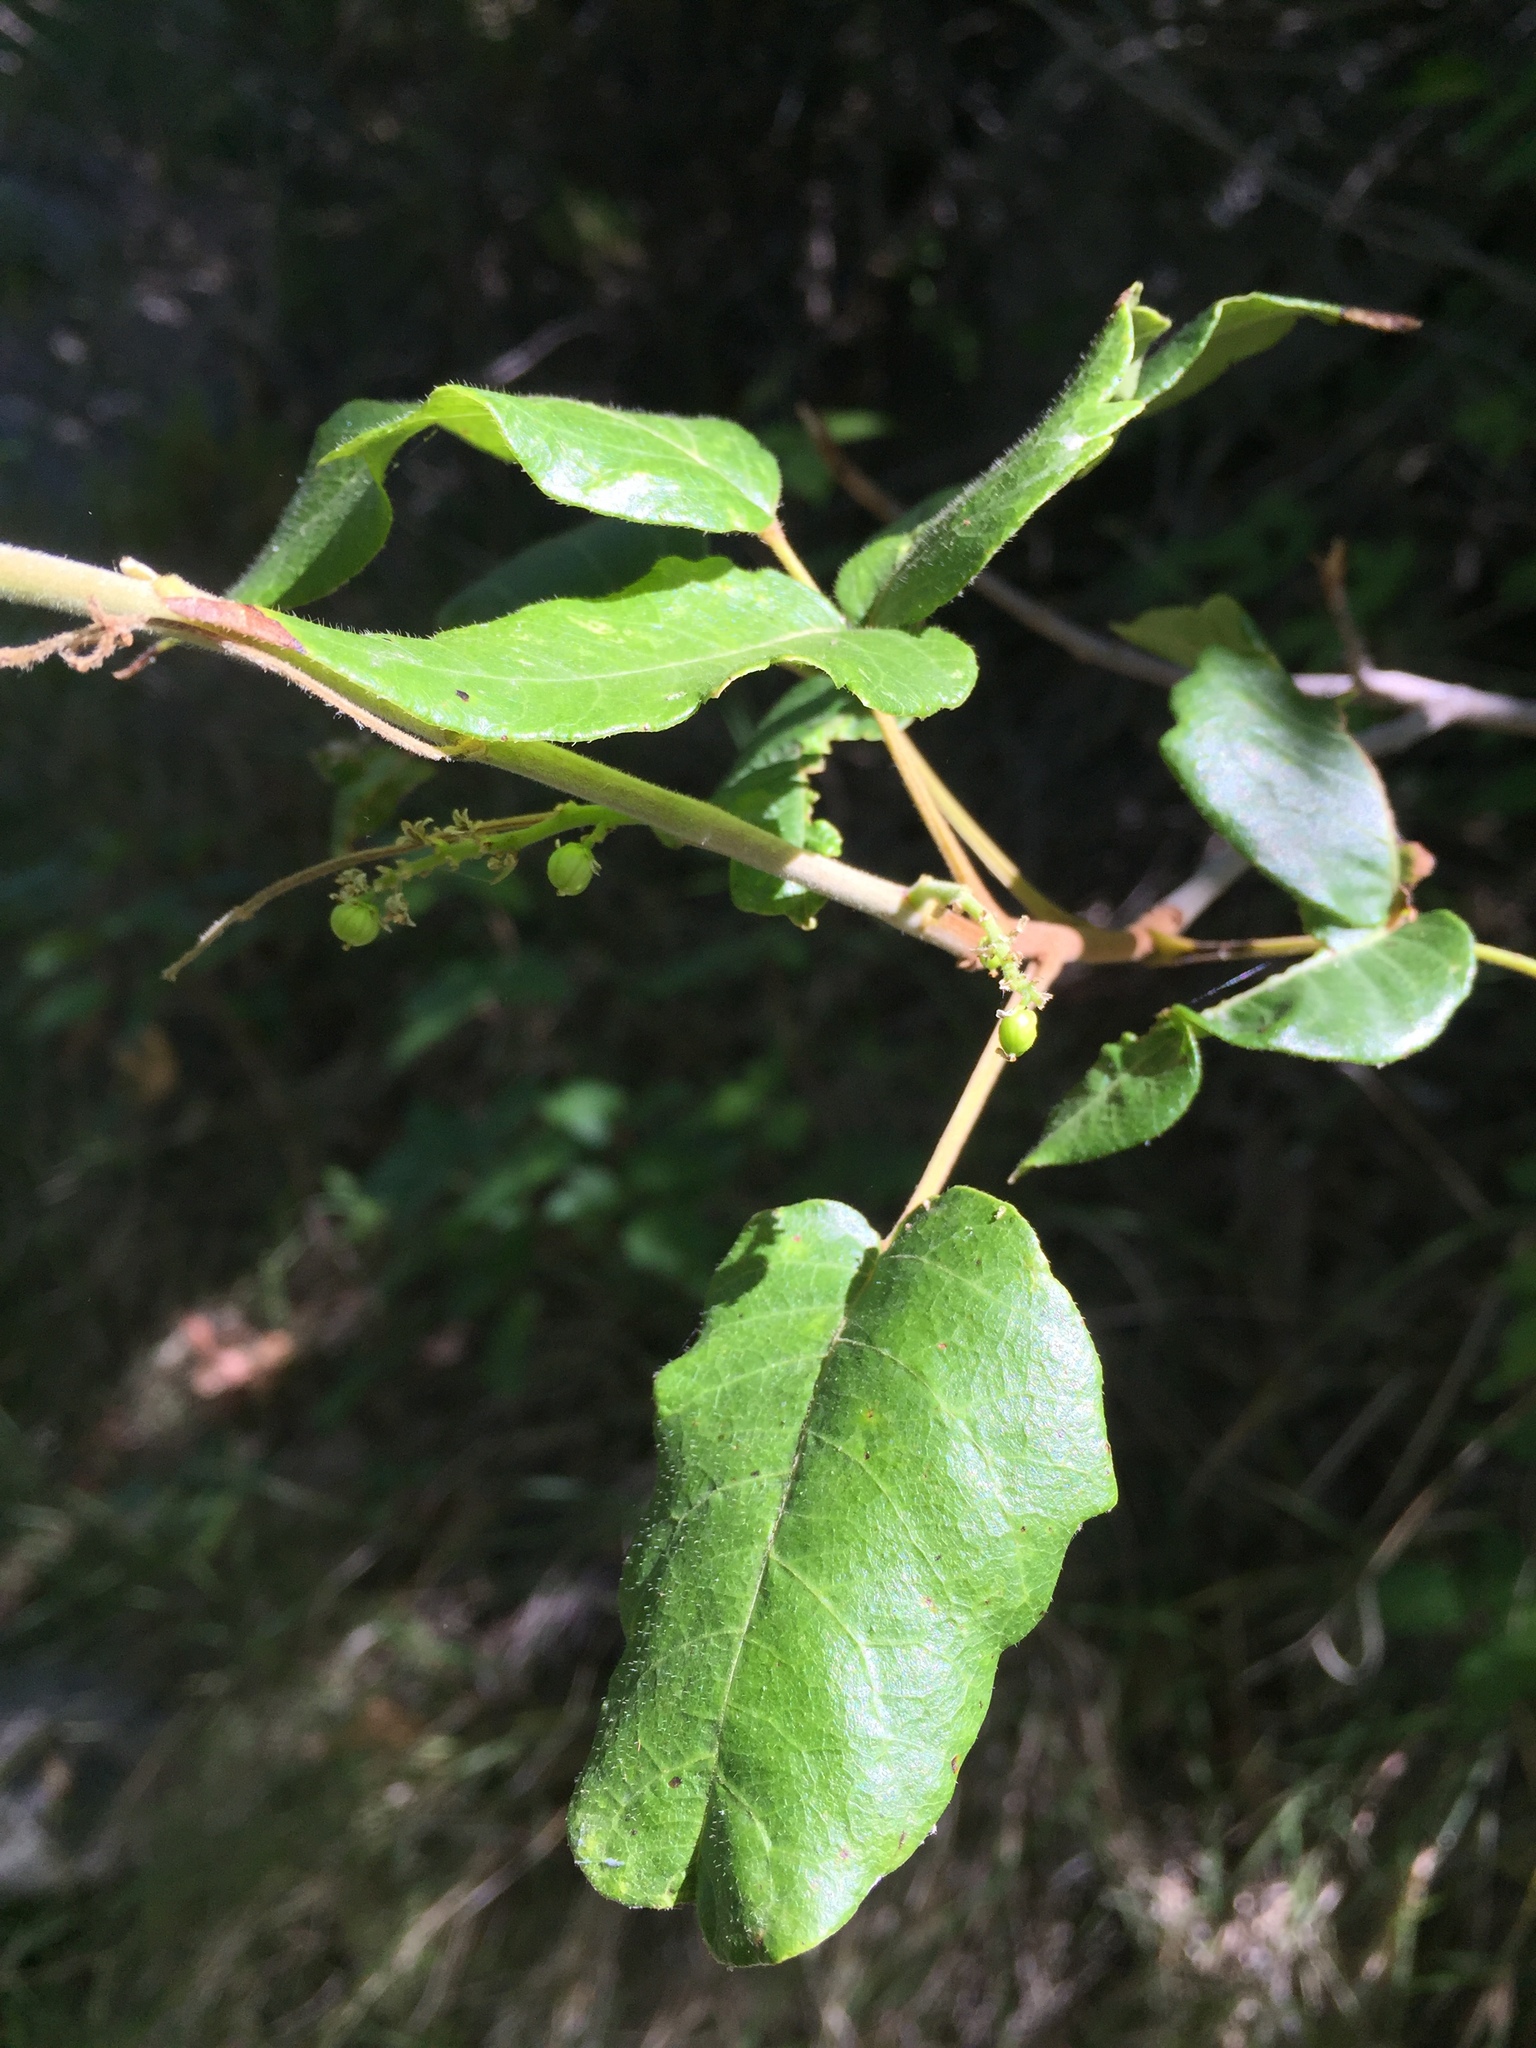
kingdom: Plantae
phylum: Tracheophyta
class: Magnoliopsida
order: Sapindales
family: Anacardiaceae
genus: Toxicodendron
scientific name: Toxicodendron radicans
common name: Poison ivy
